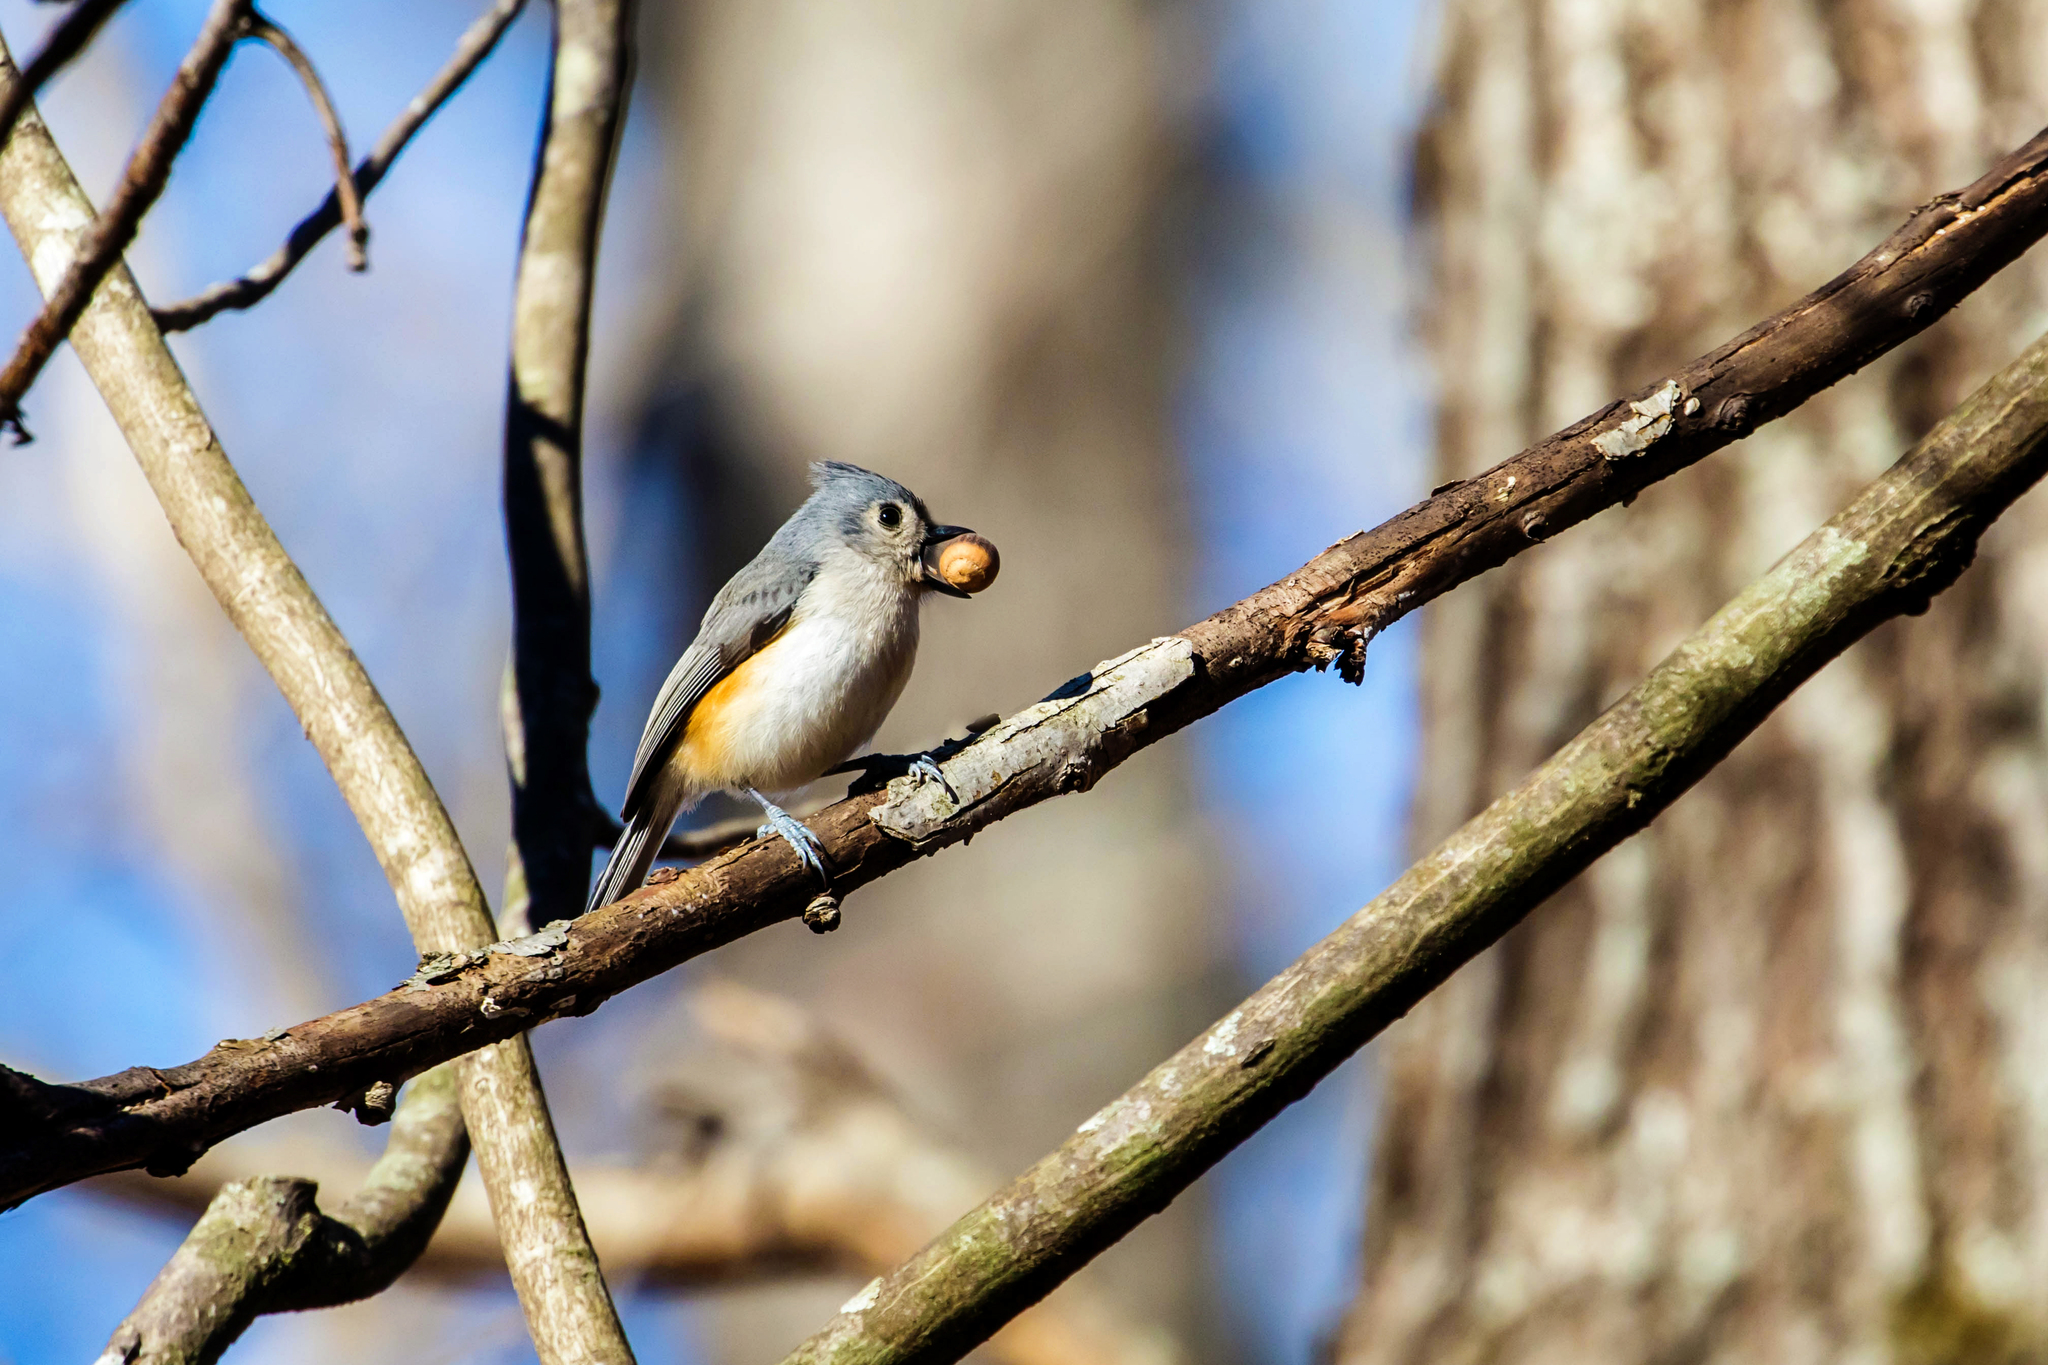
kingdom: Animalia
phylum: Chordata
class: Aves
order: Passeriformes
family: Paridae
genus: Baeolophus
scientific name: Baeolophus bicolor
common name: Tufted titmouse
